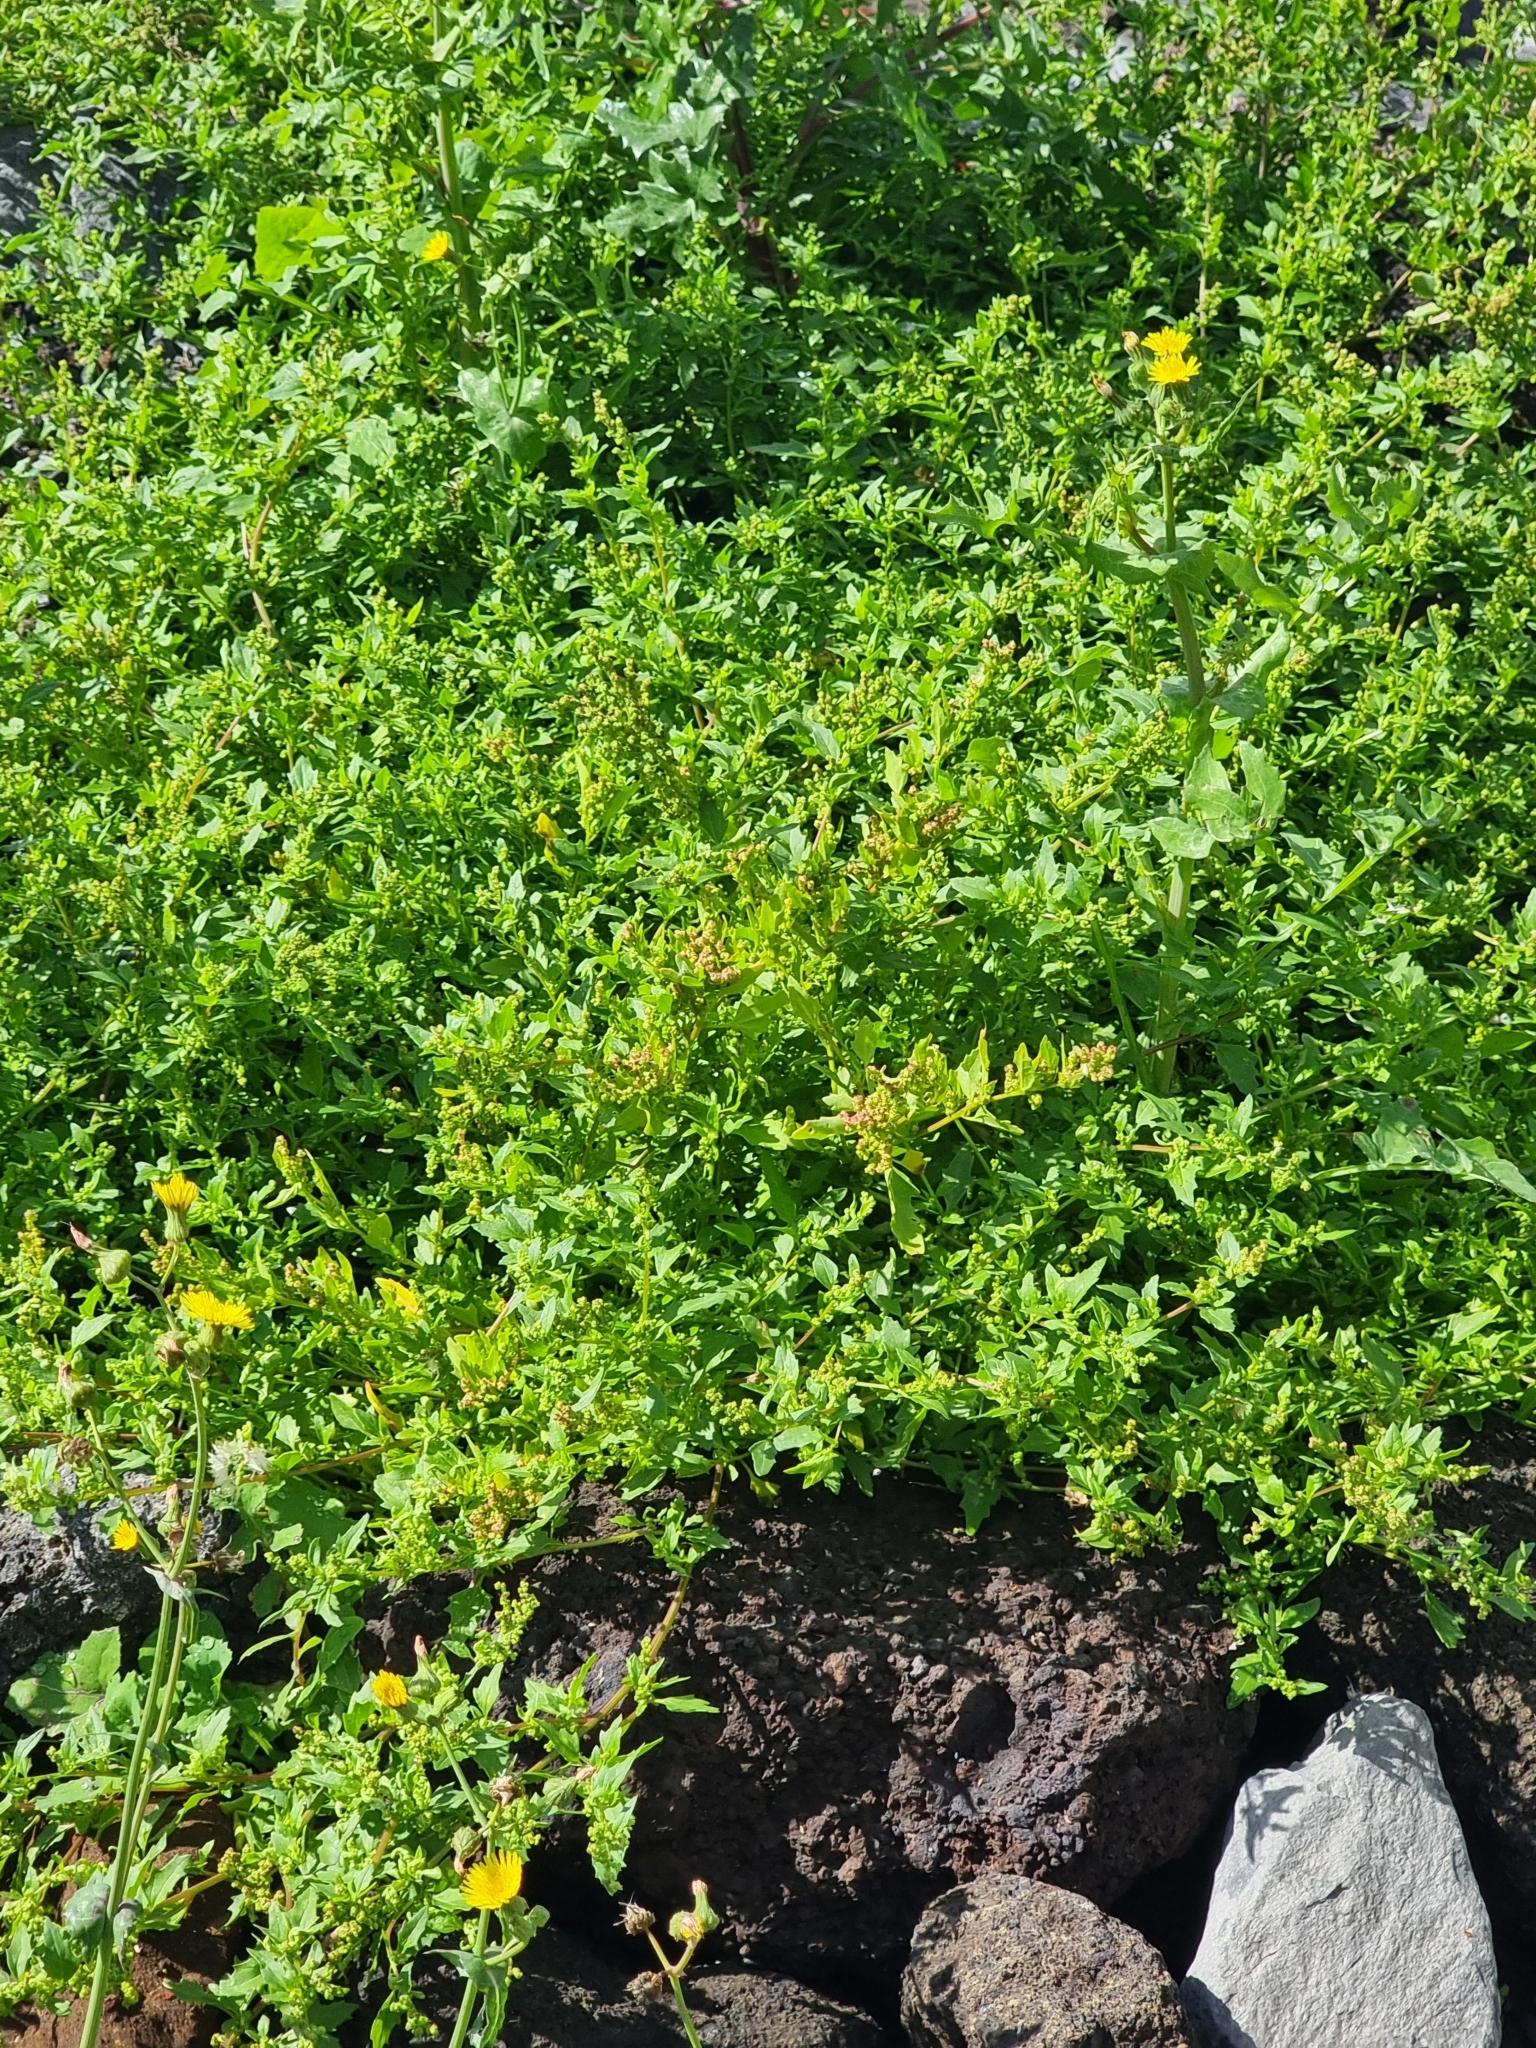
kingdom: Plantae
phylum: Tracheophyta
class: Magnoliopsida
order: Caryophyllales
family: Amaranthaceae
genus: Chenopodiastrum
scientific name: Chenopodiastrum murale
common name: Sowbane
